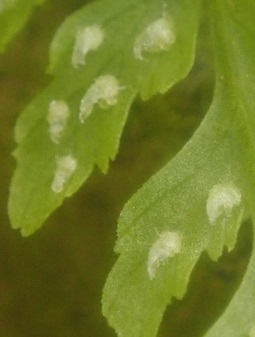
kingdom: Plantae
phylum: Tracheophyta
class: Polypodiopsida
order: Polypodiales
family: Cystopteridaceae
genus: Cystopteris
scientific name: Cystopteris fragilis
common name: Brittle bladder fern
